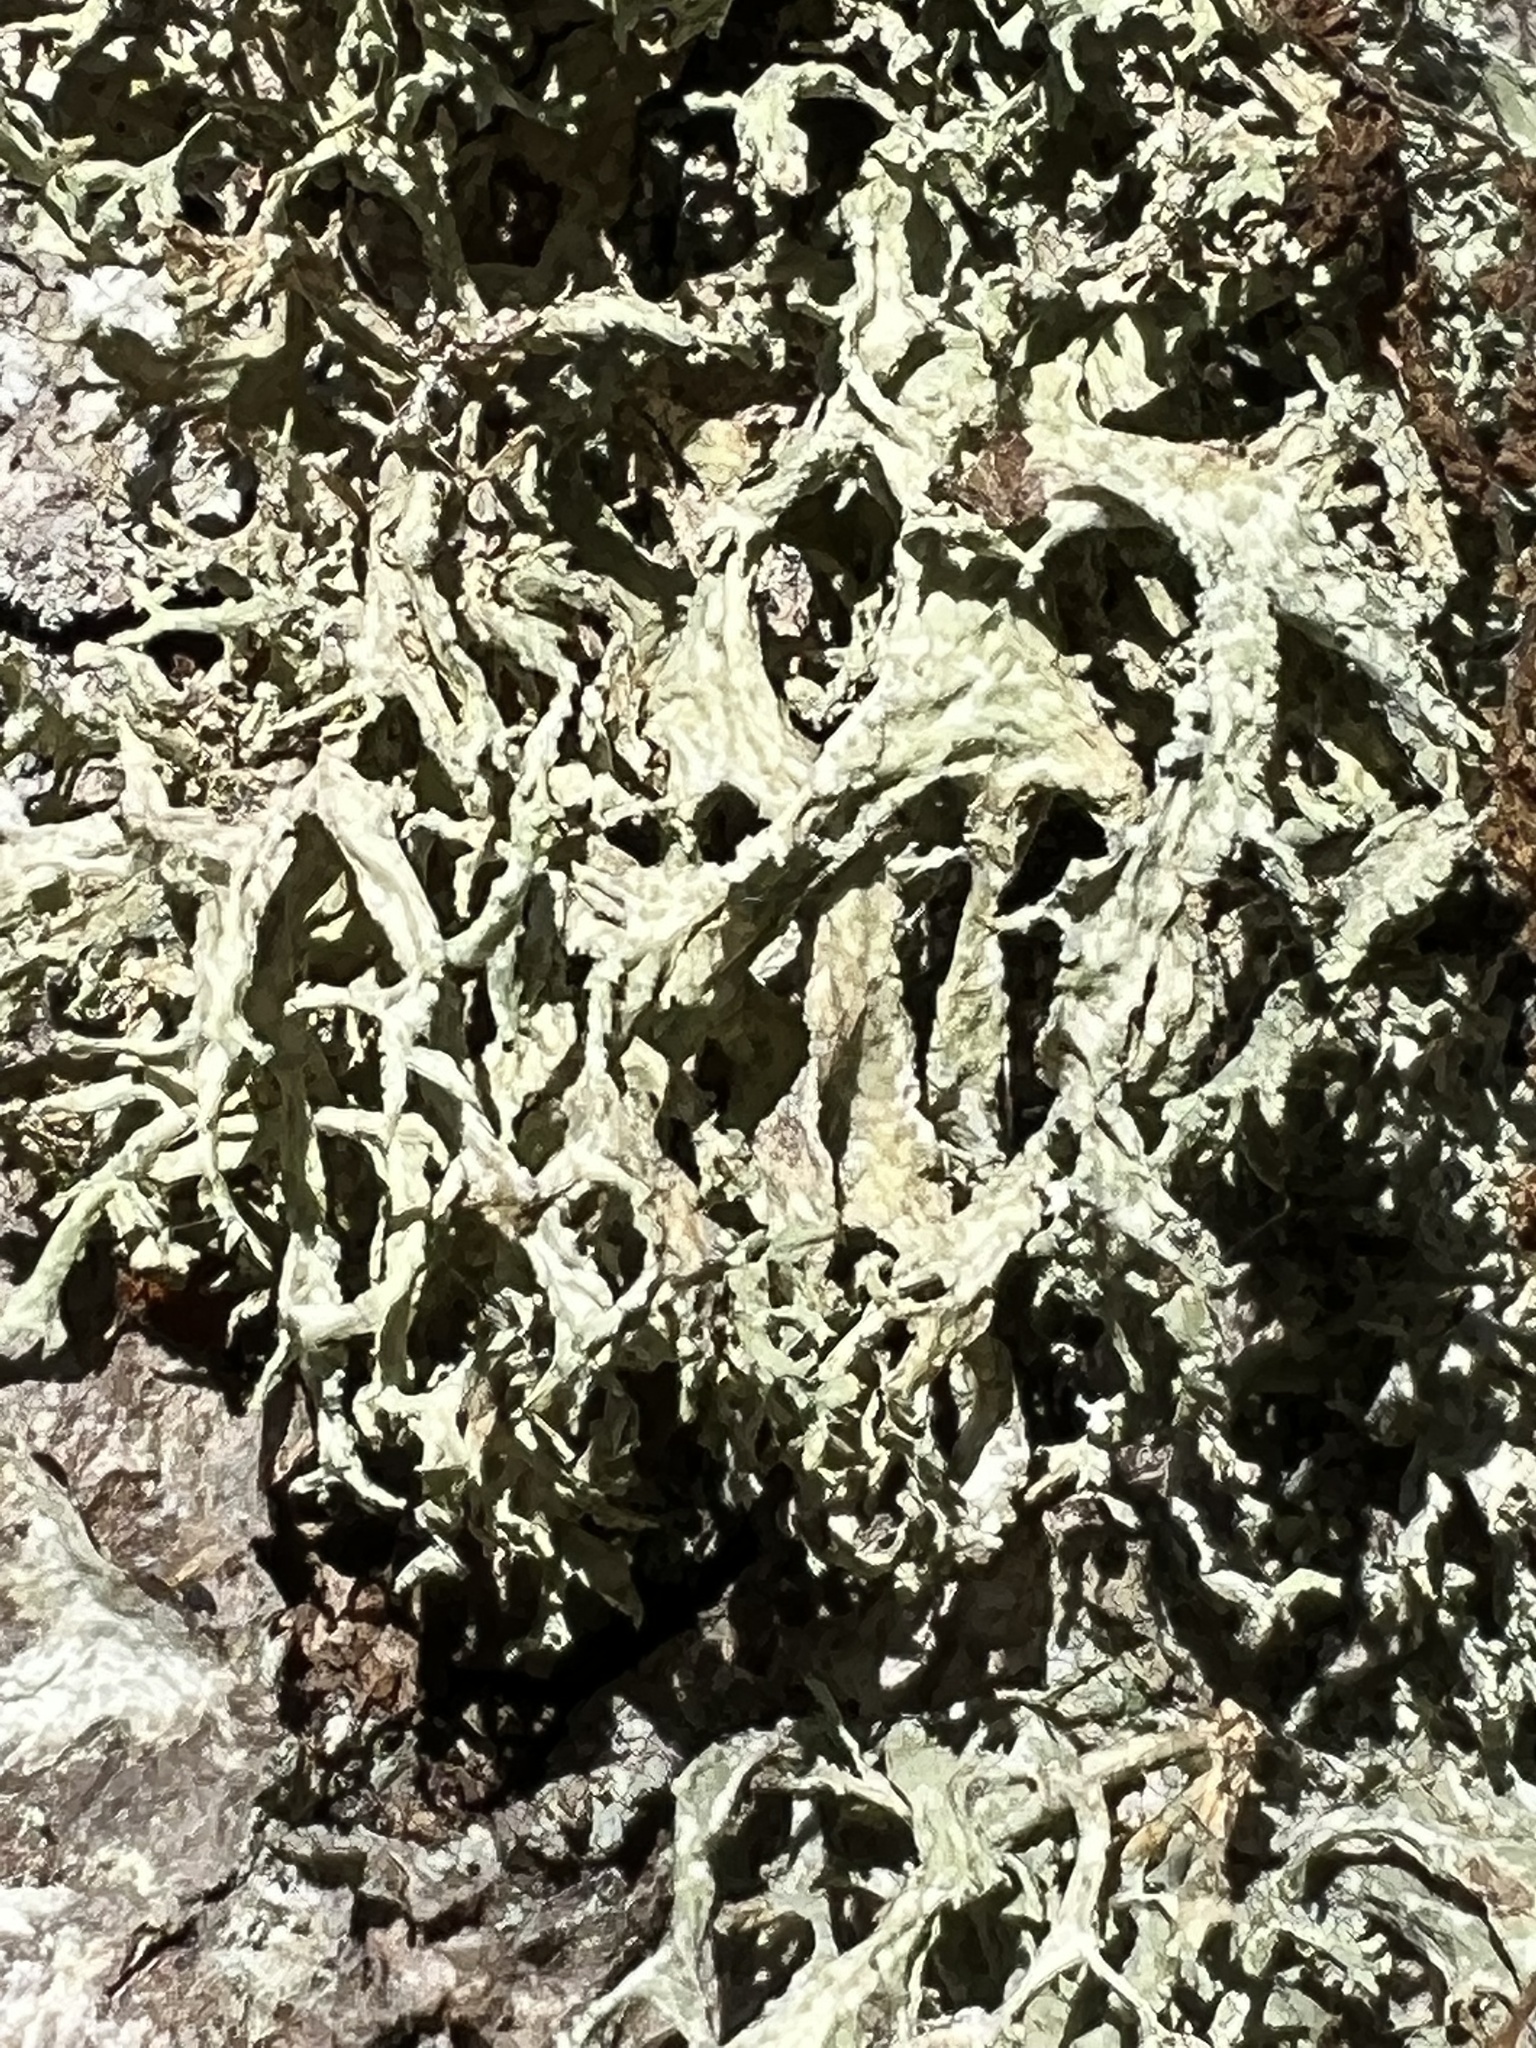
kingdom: Fungi
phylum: Ascomycota
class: Lecanoromycetes
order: Lecanorales
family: Parmeliaceae
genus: Evernia
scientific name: Evernia prunastri
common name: Oak moss
